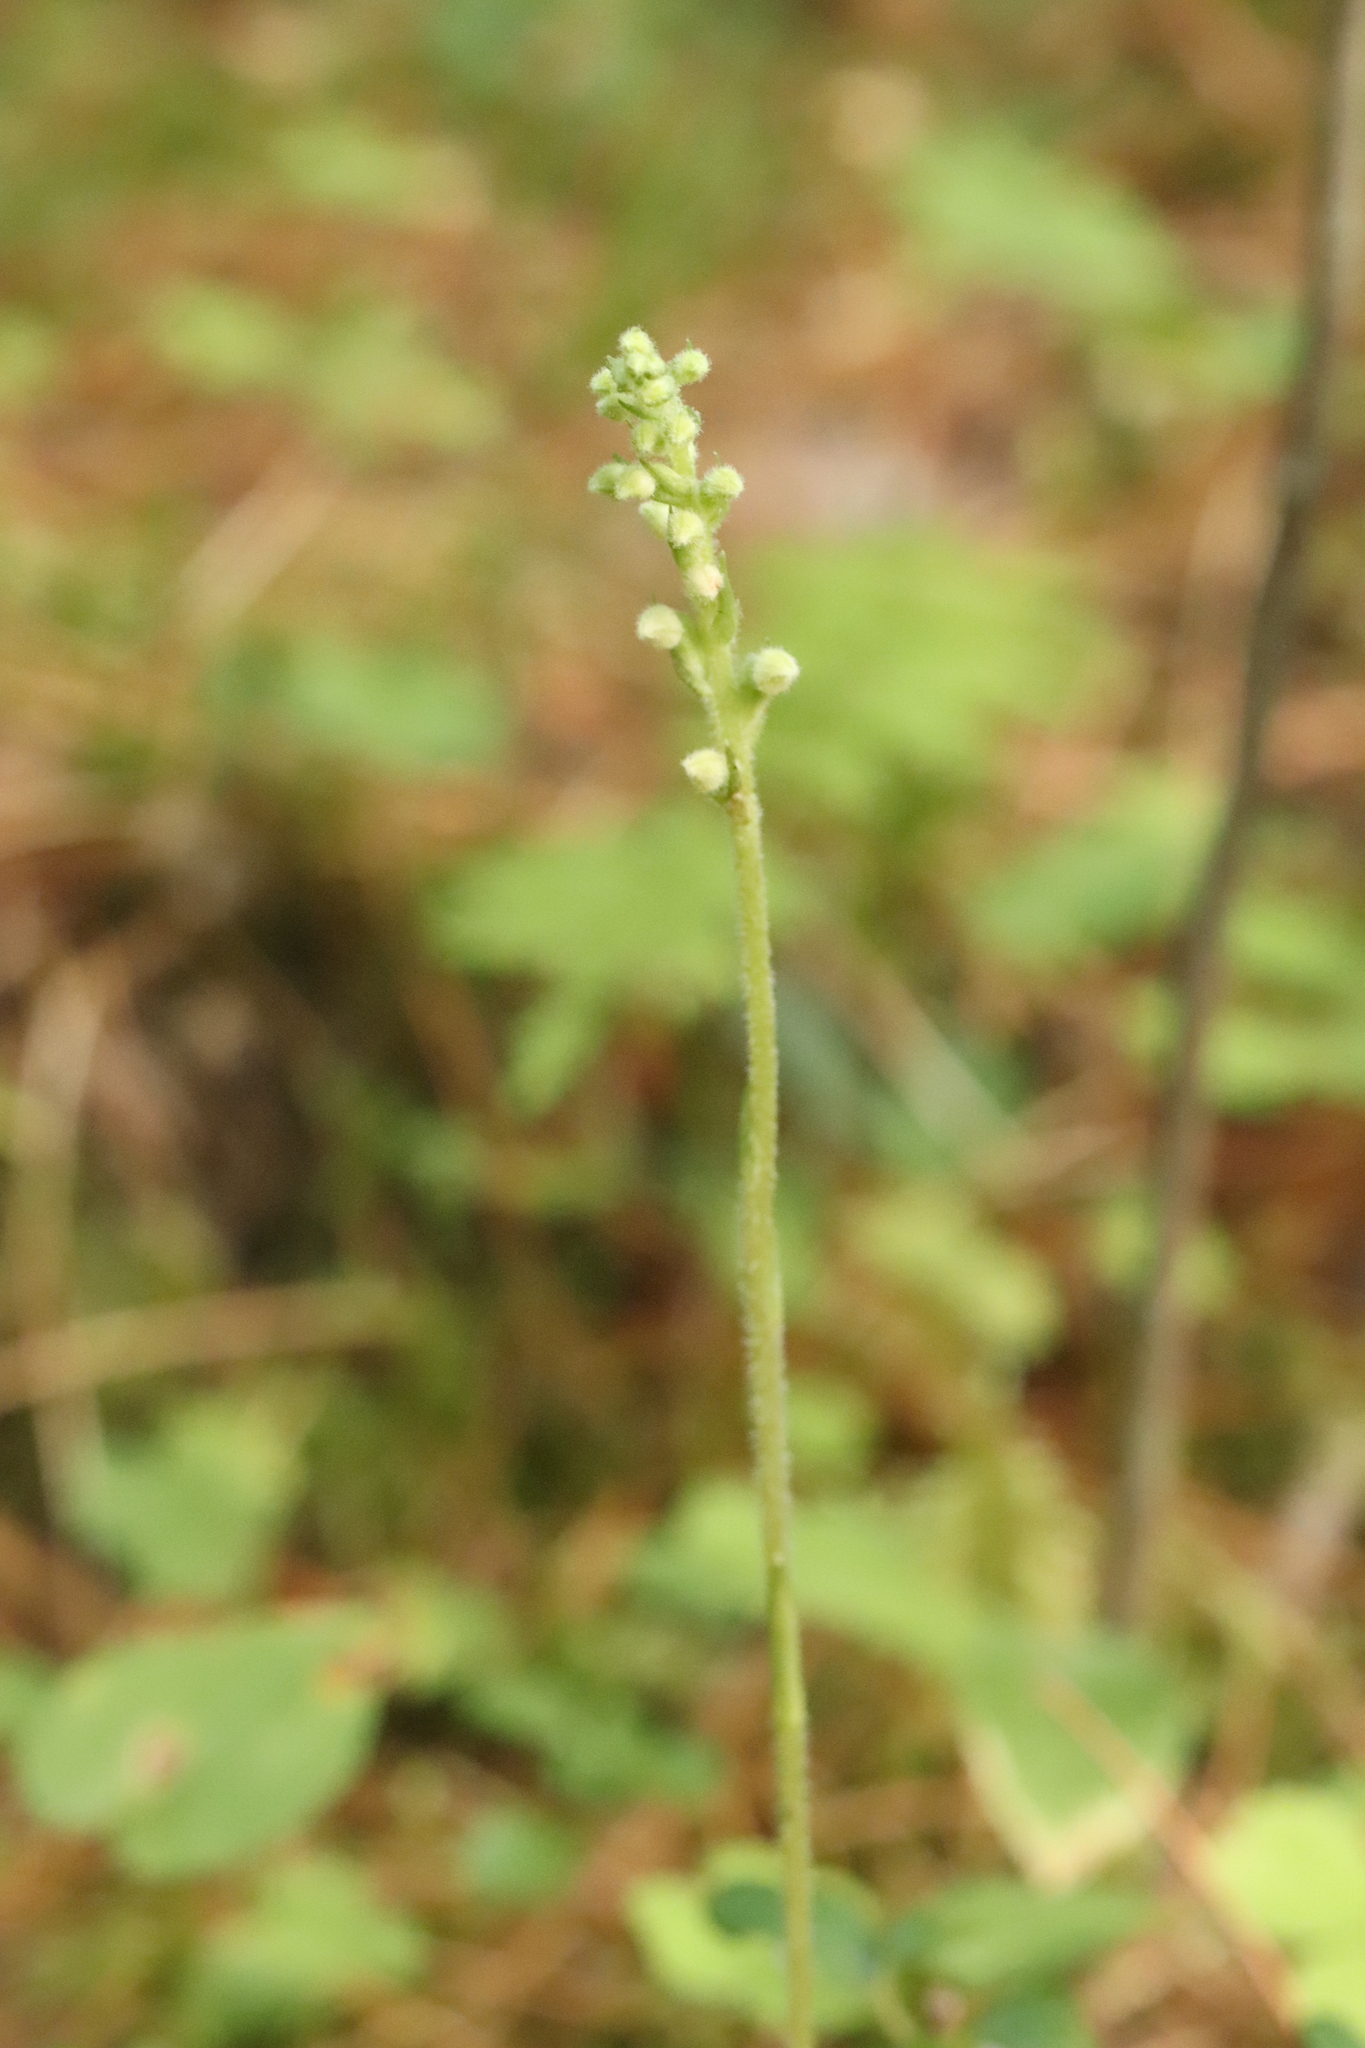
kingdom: Plantae
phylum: Tracheophyta
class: Liliopsida
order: Asparagales
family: Orchidaceae
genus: Goodyera
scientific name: Goodyera repens
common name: Creeping lady's-tresses
